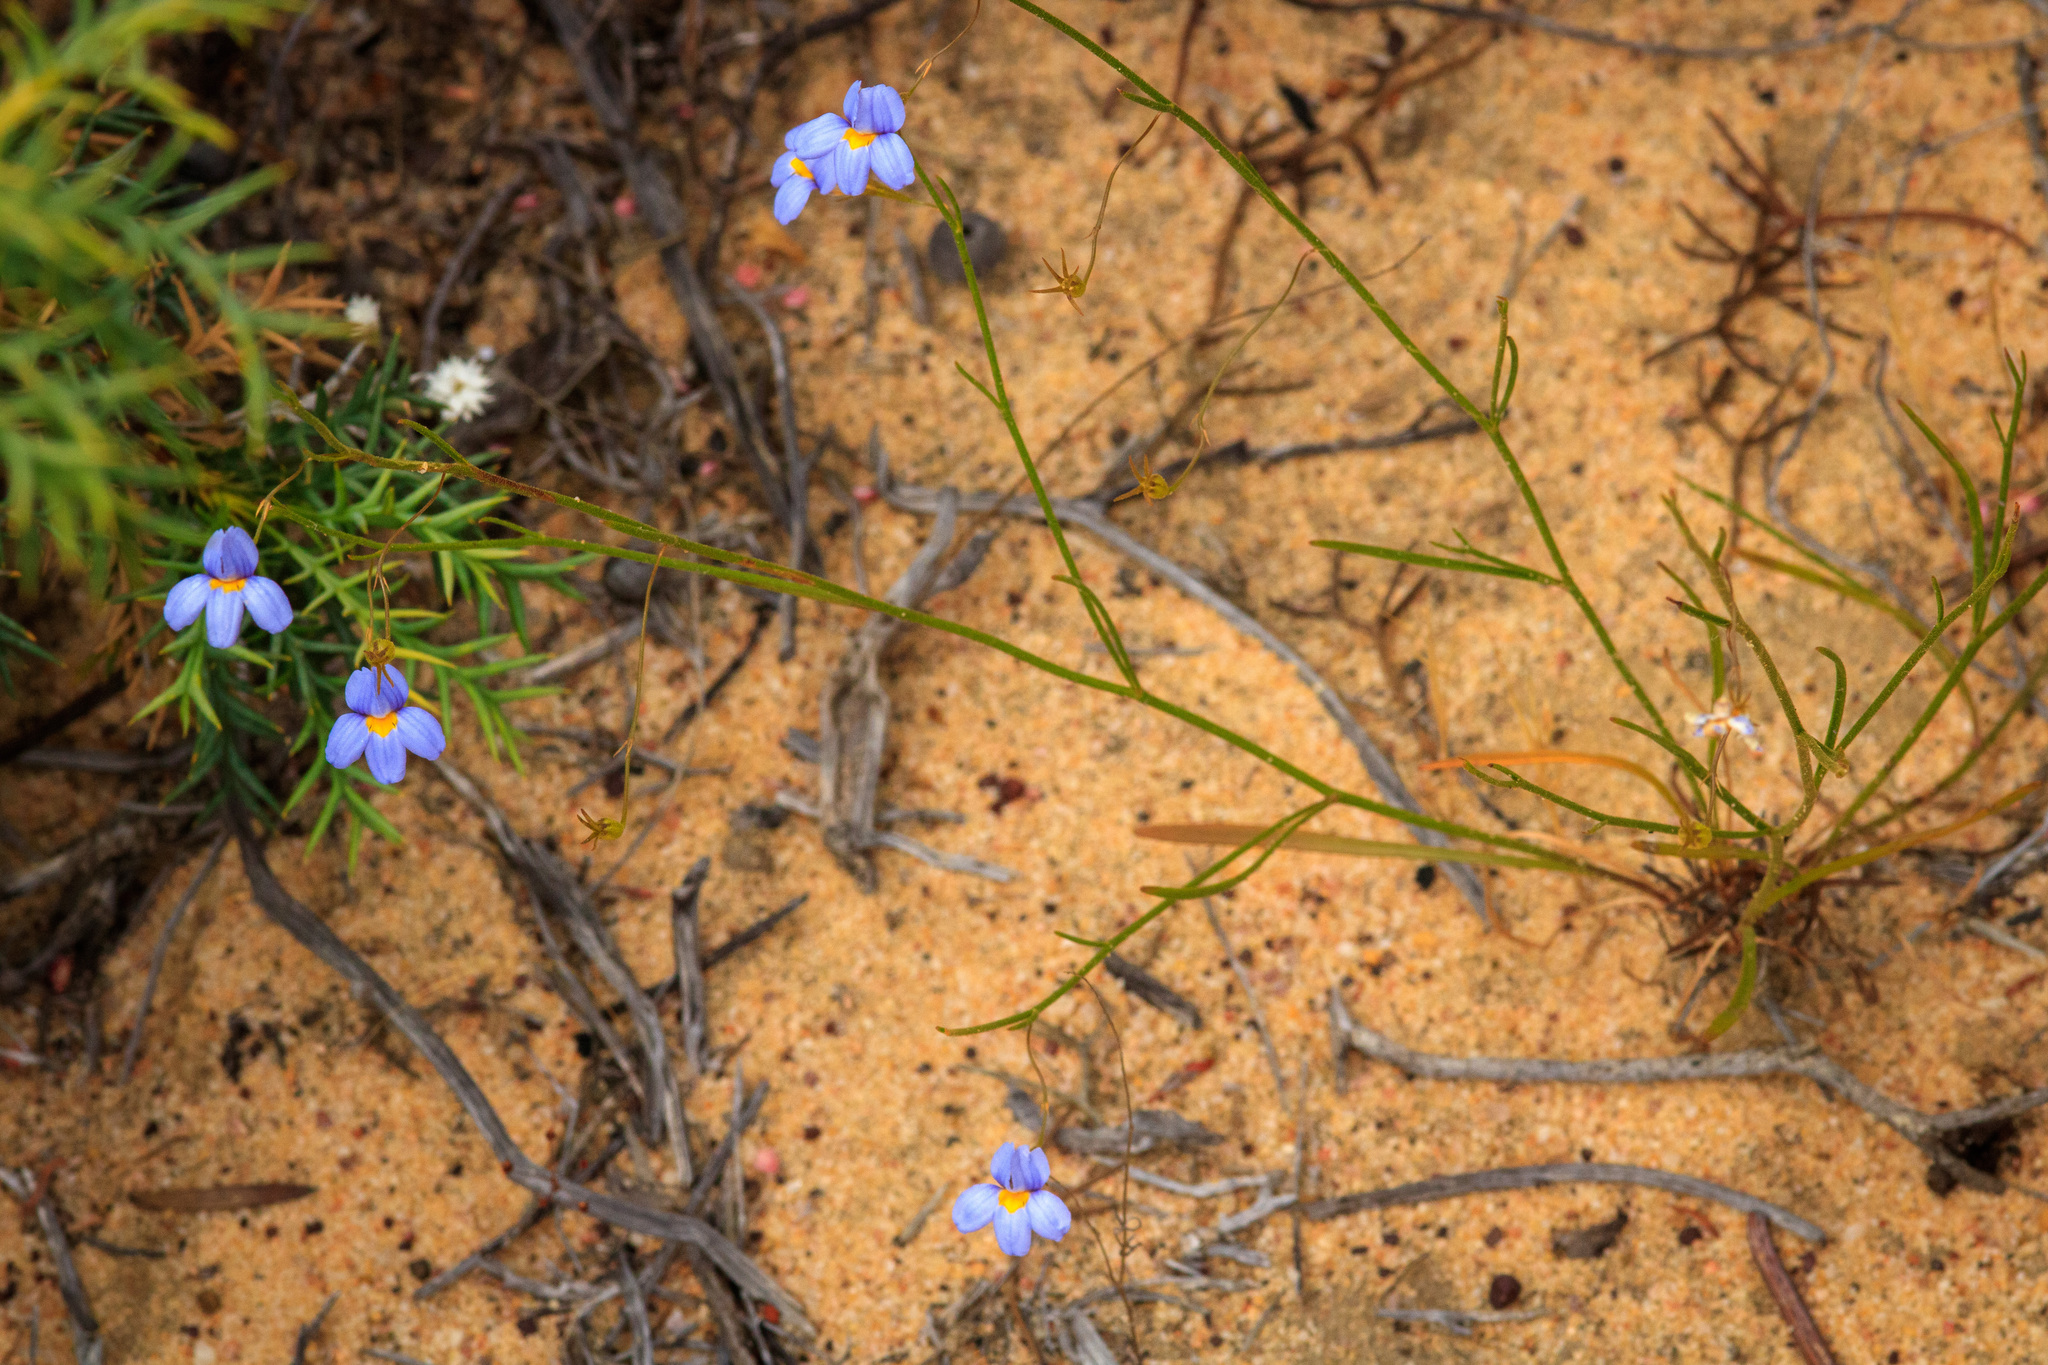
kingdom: Plantae
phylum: Tracheophyta
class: Magnoliopsida
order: Asterales
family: Goodeniaceae
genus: Goodenia
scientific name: Goodenia coerulea
